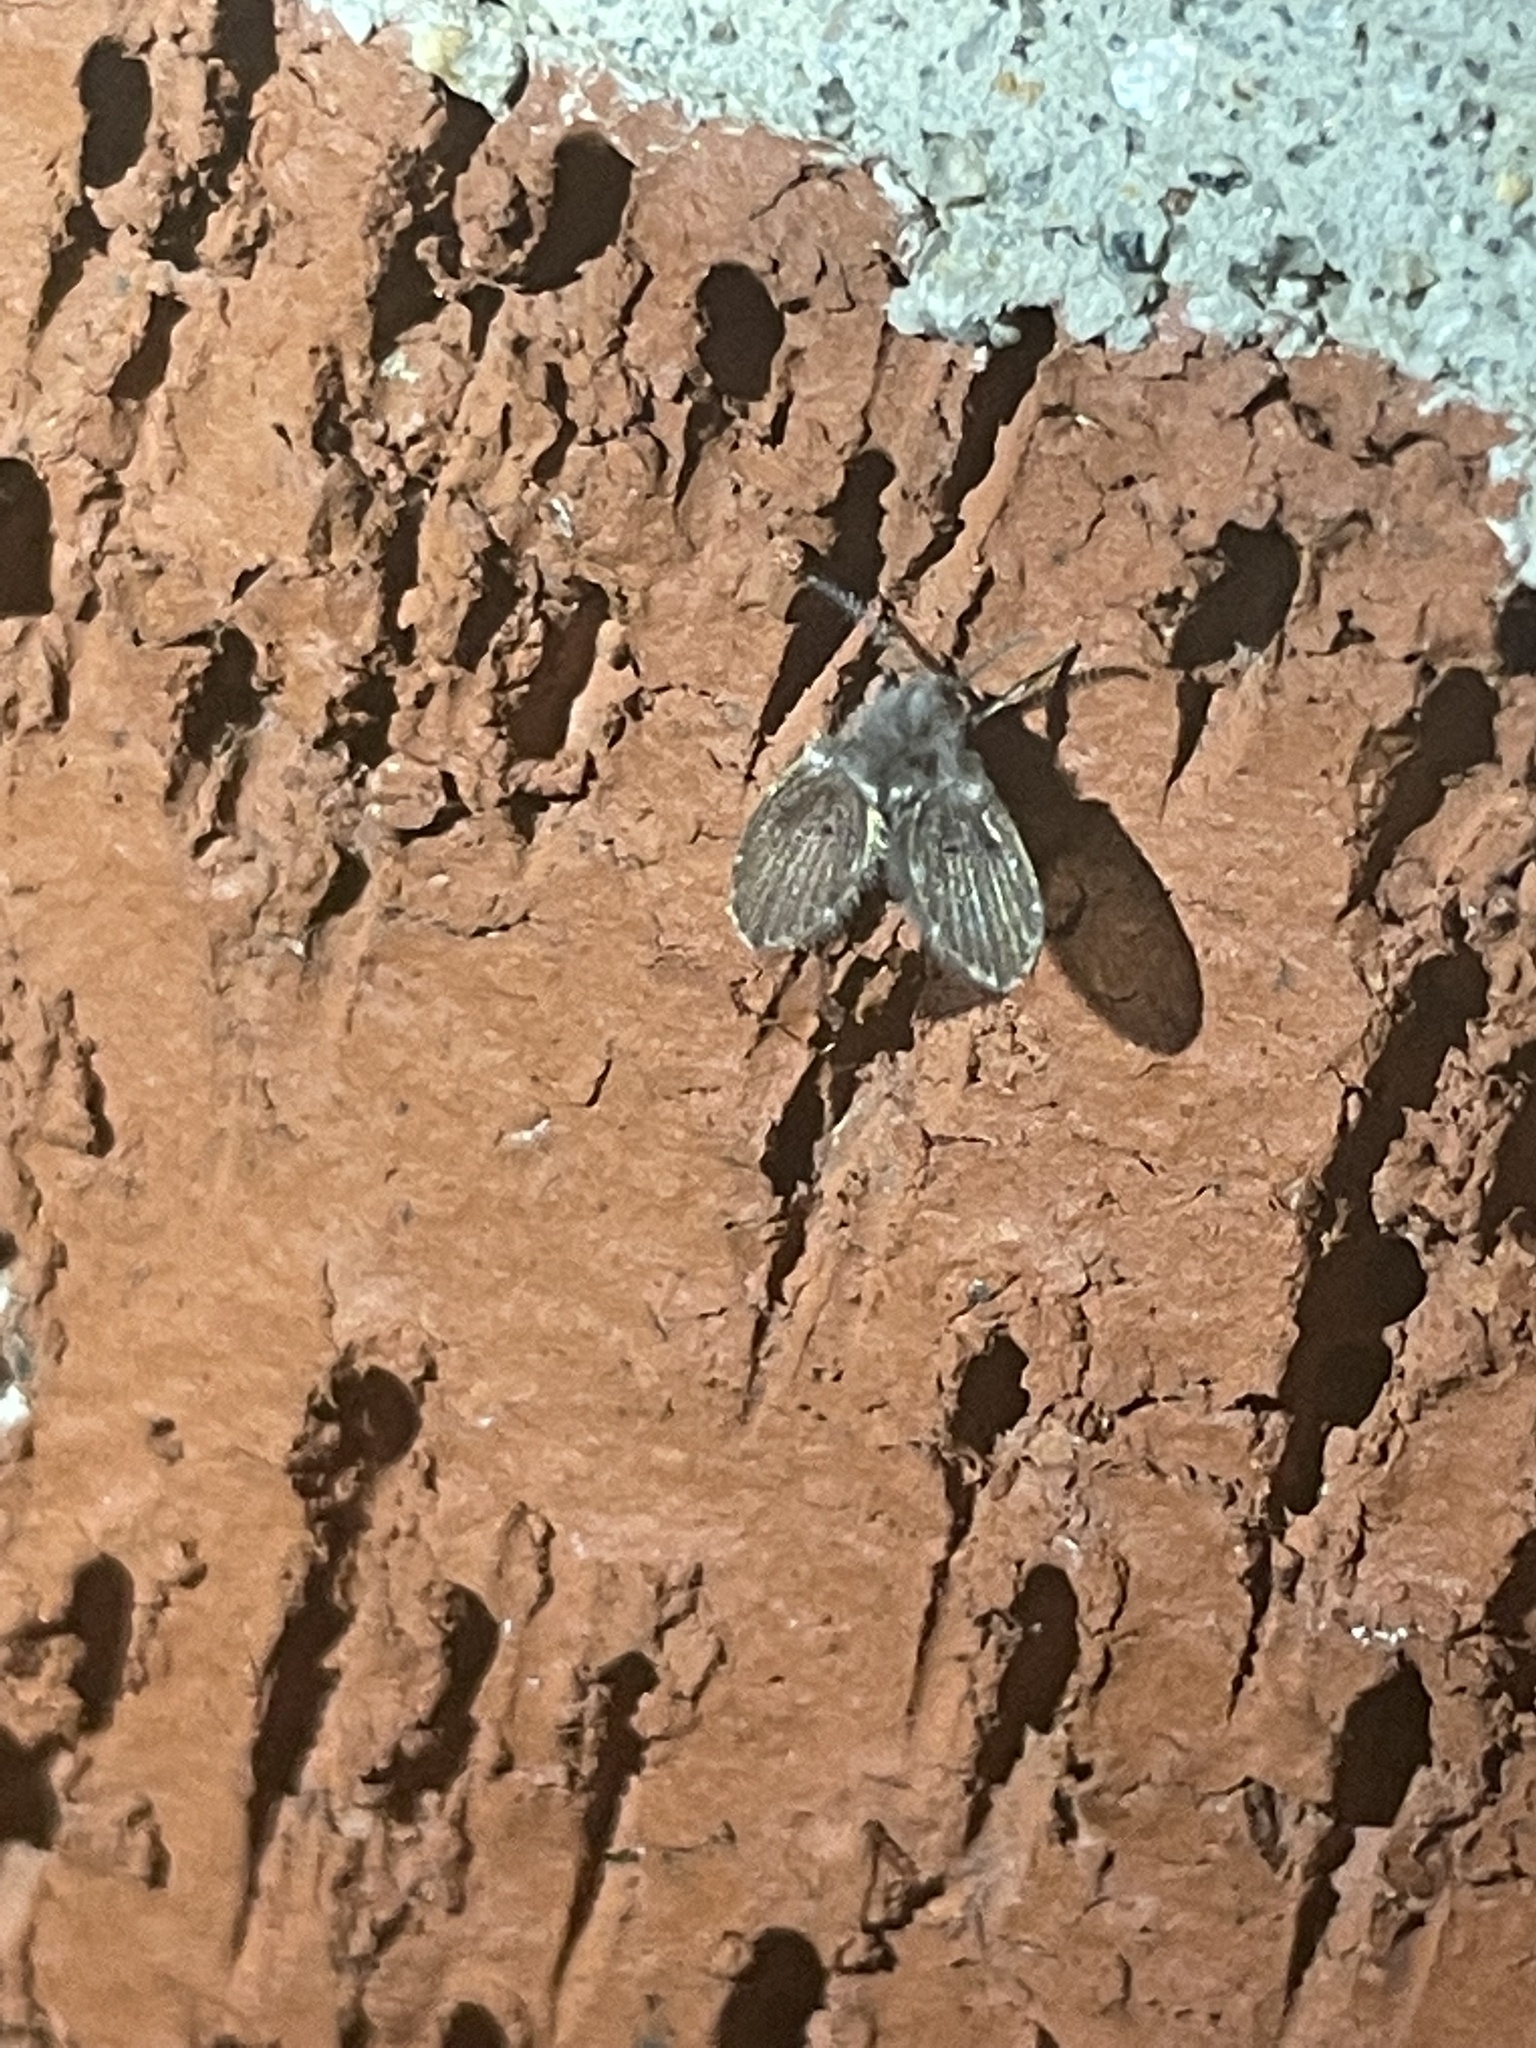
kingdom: Animalia
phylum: Arthropoda
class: Insecta
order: Diptera
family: Psychodidae
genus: Clogmia
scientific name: Clogmia albipunctatus
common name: White-spotted moth fly
